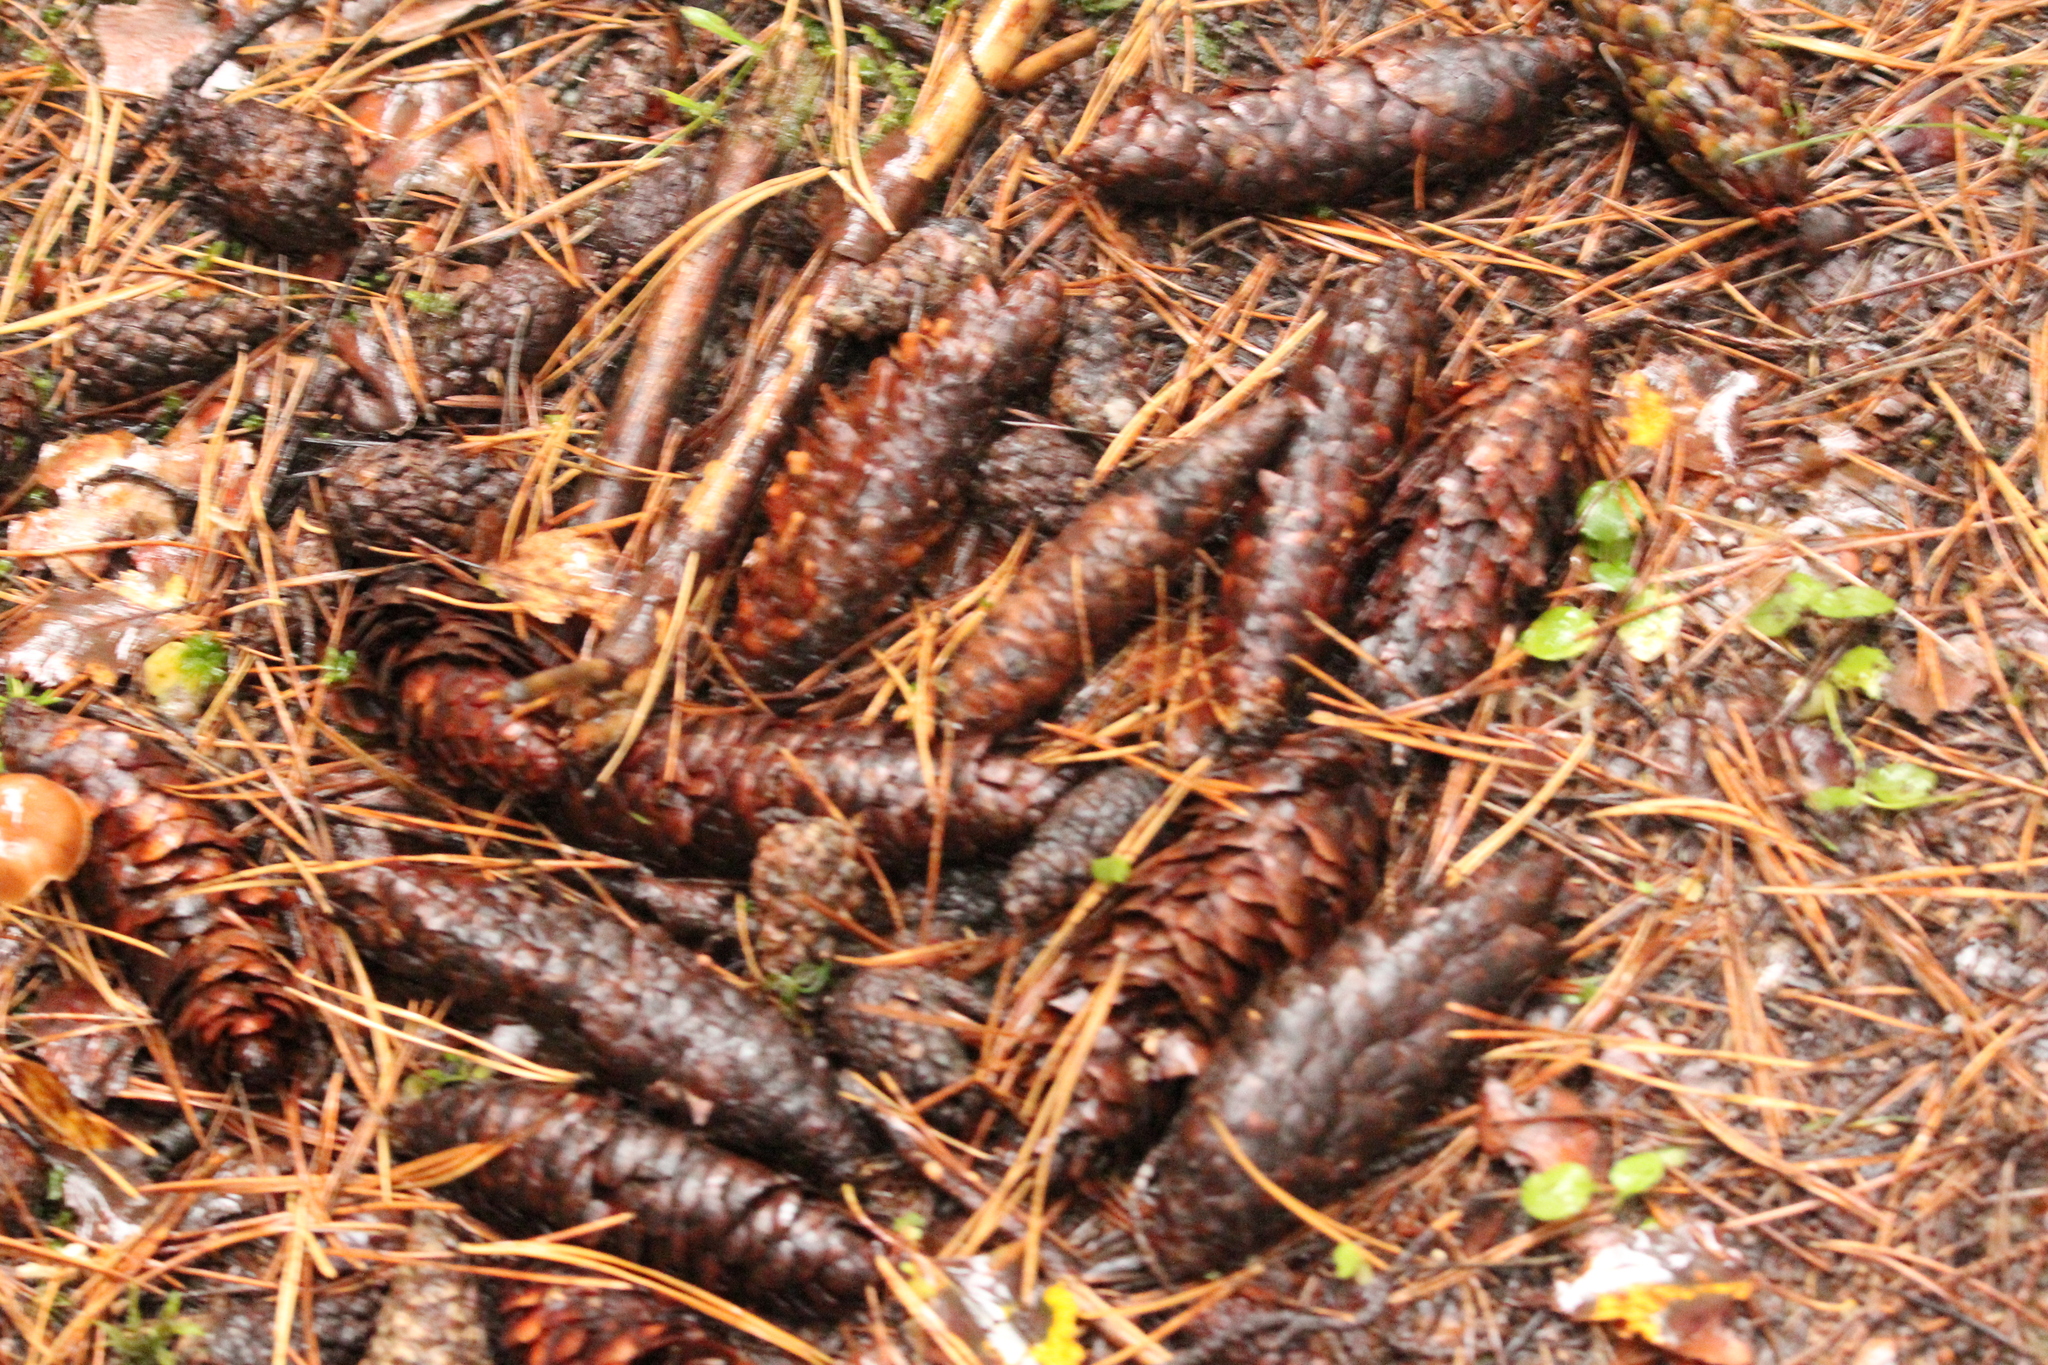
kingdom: Plantae
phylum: Tracheophyta
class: Pinopsida
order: Pinales
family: Pinaceae
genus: Picea
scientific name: Picea obovata
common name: Siberian spruce
